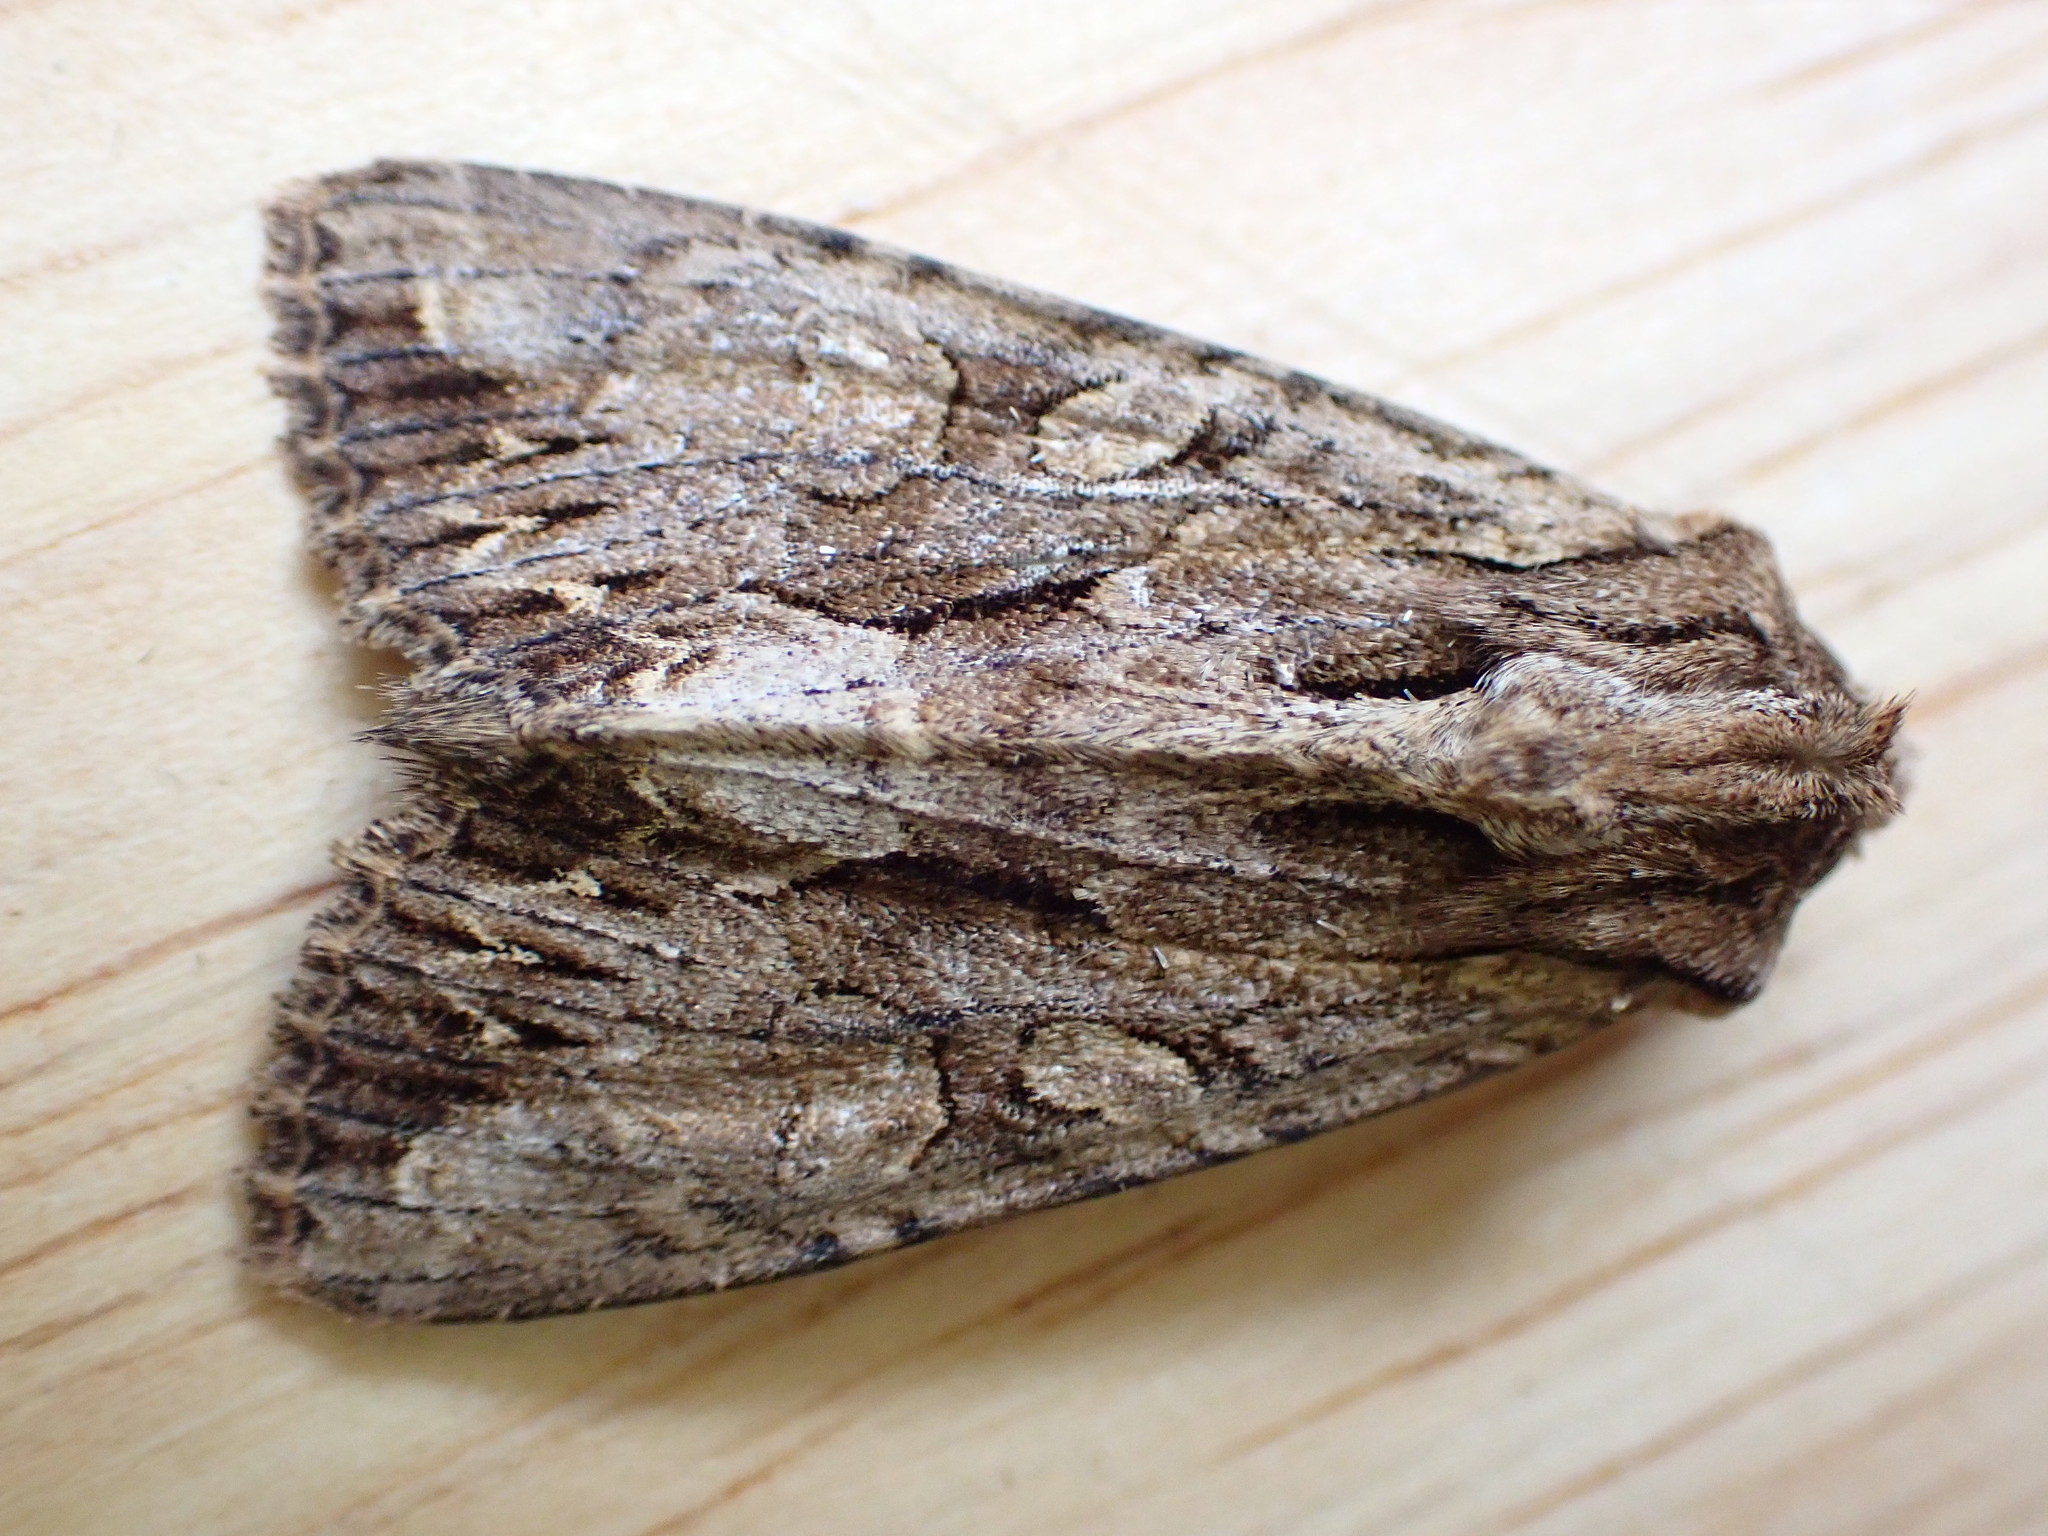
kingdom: Animalia
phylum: Arthropoda
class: Insecta
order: Lepidoptera
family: Noctuidae
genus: Apamea
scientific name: Apamea monoglypha
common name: Dark arches
